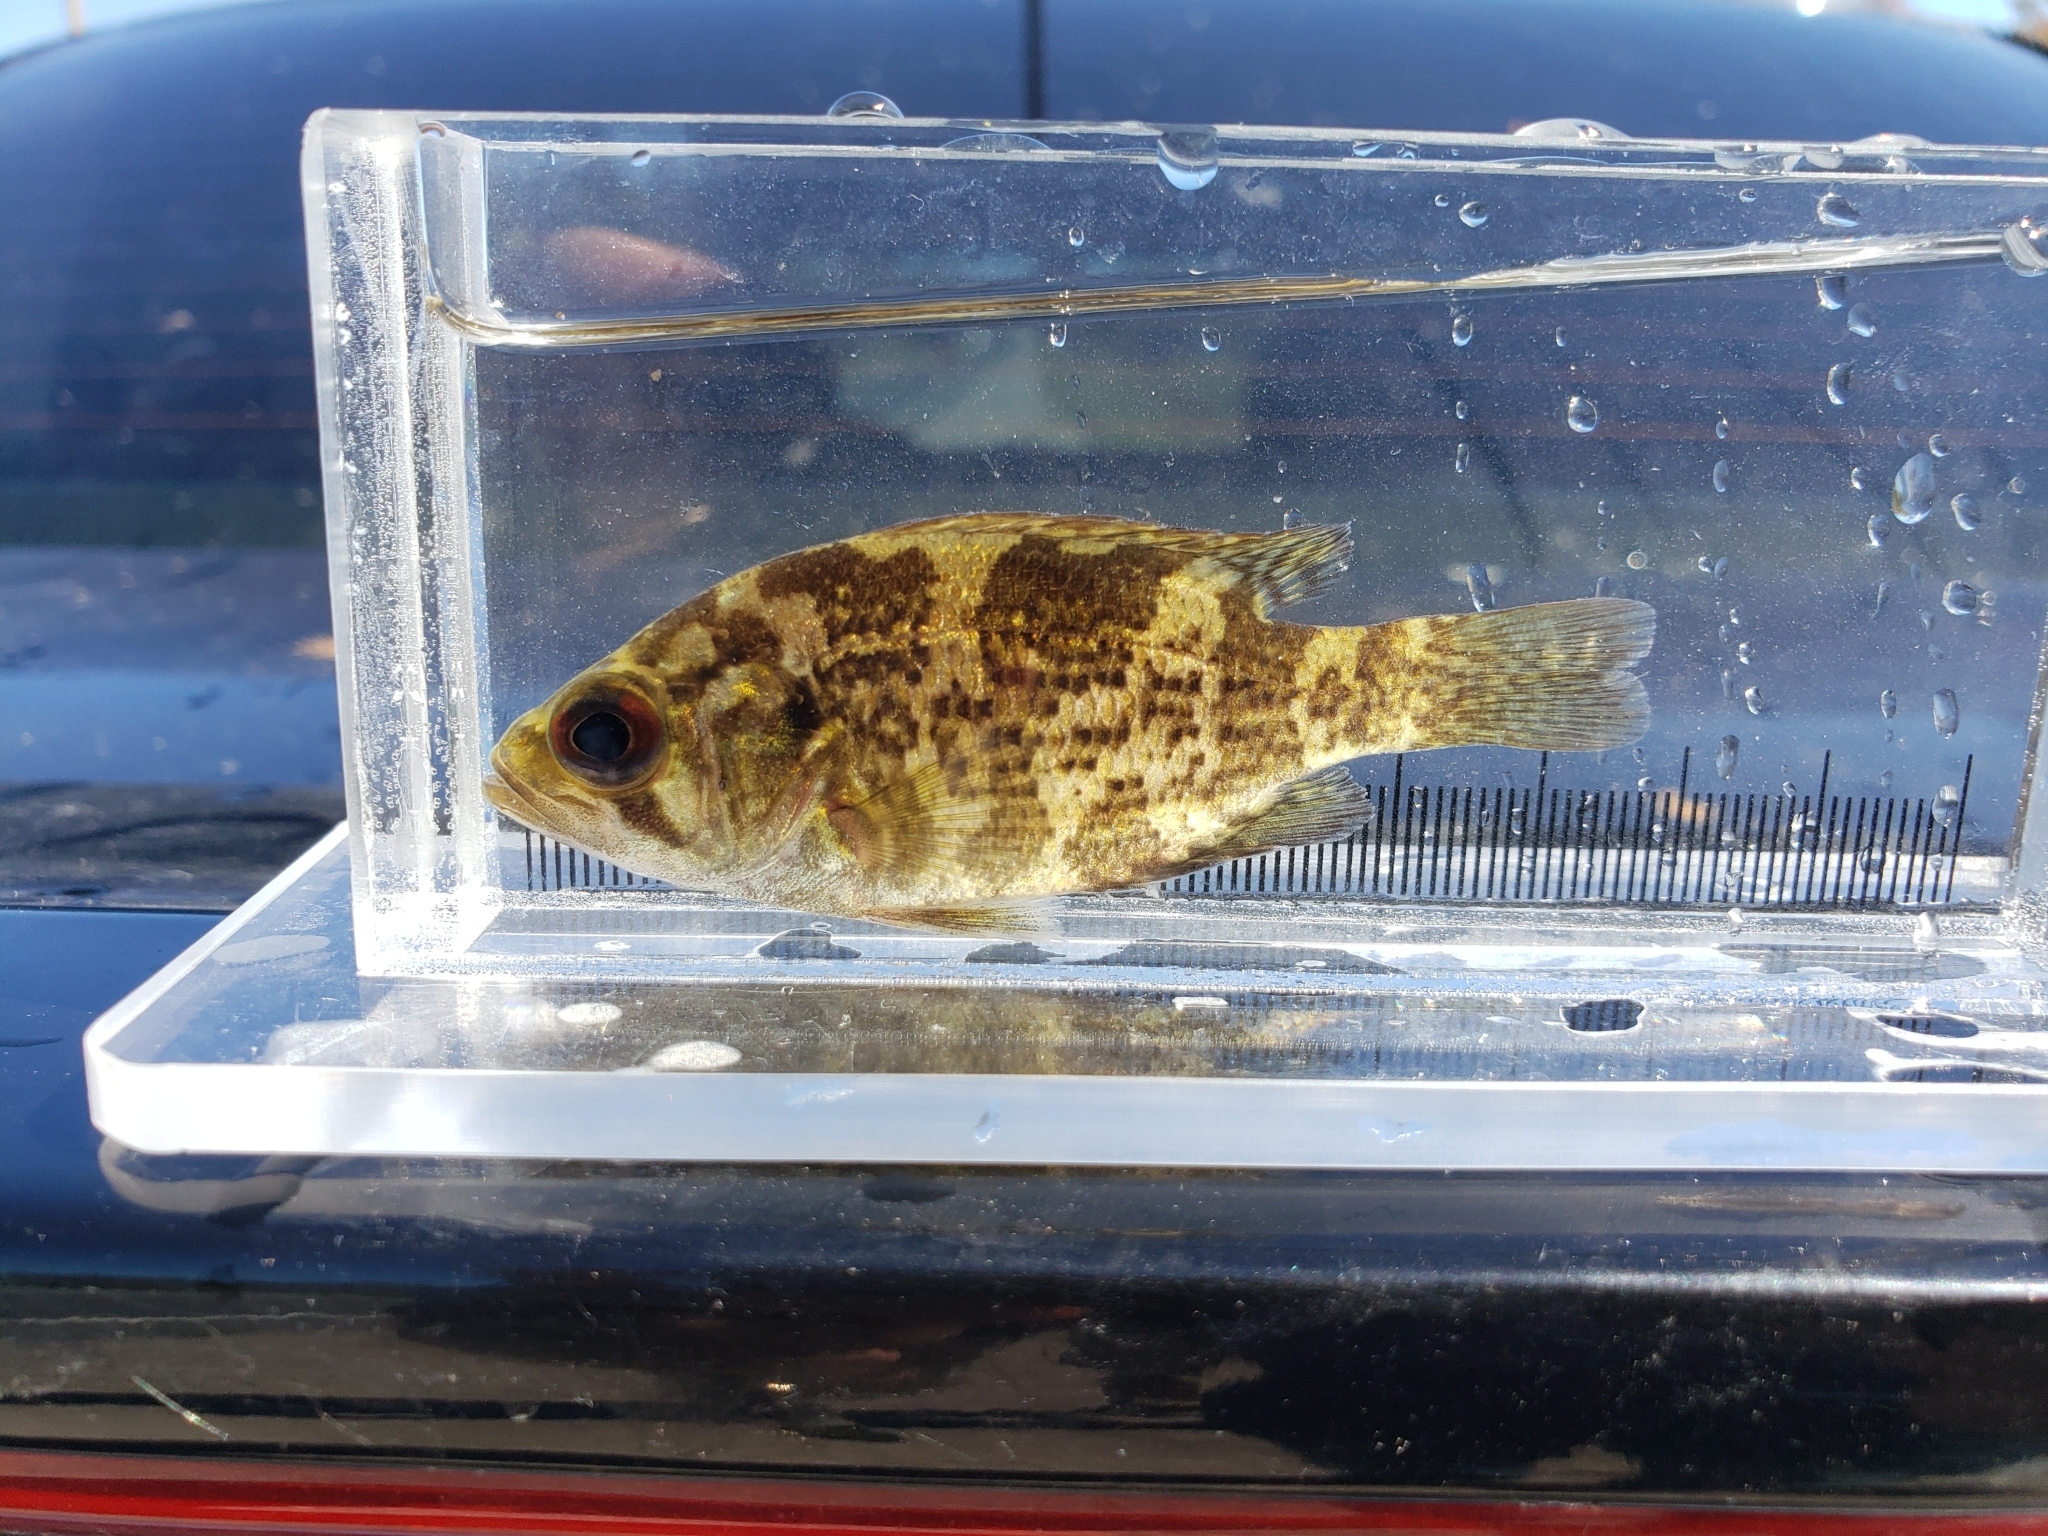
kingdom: Animalia
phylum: Chordata
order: Perciformes
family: Centrarchidae
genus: Ambloplites
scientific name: Ambloplites rupestris
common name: Rock bass
